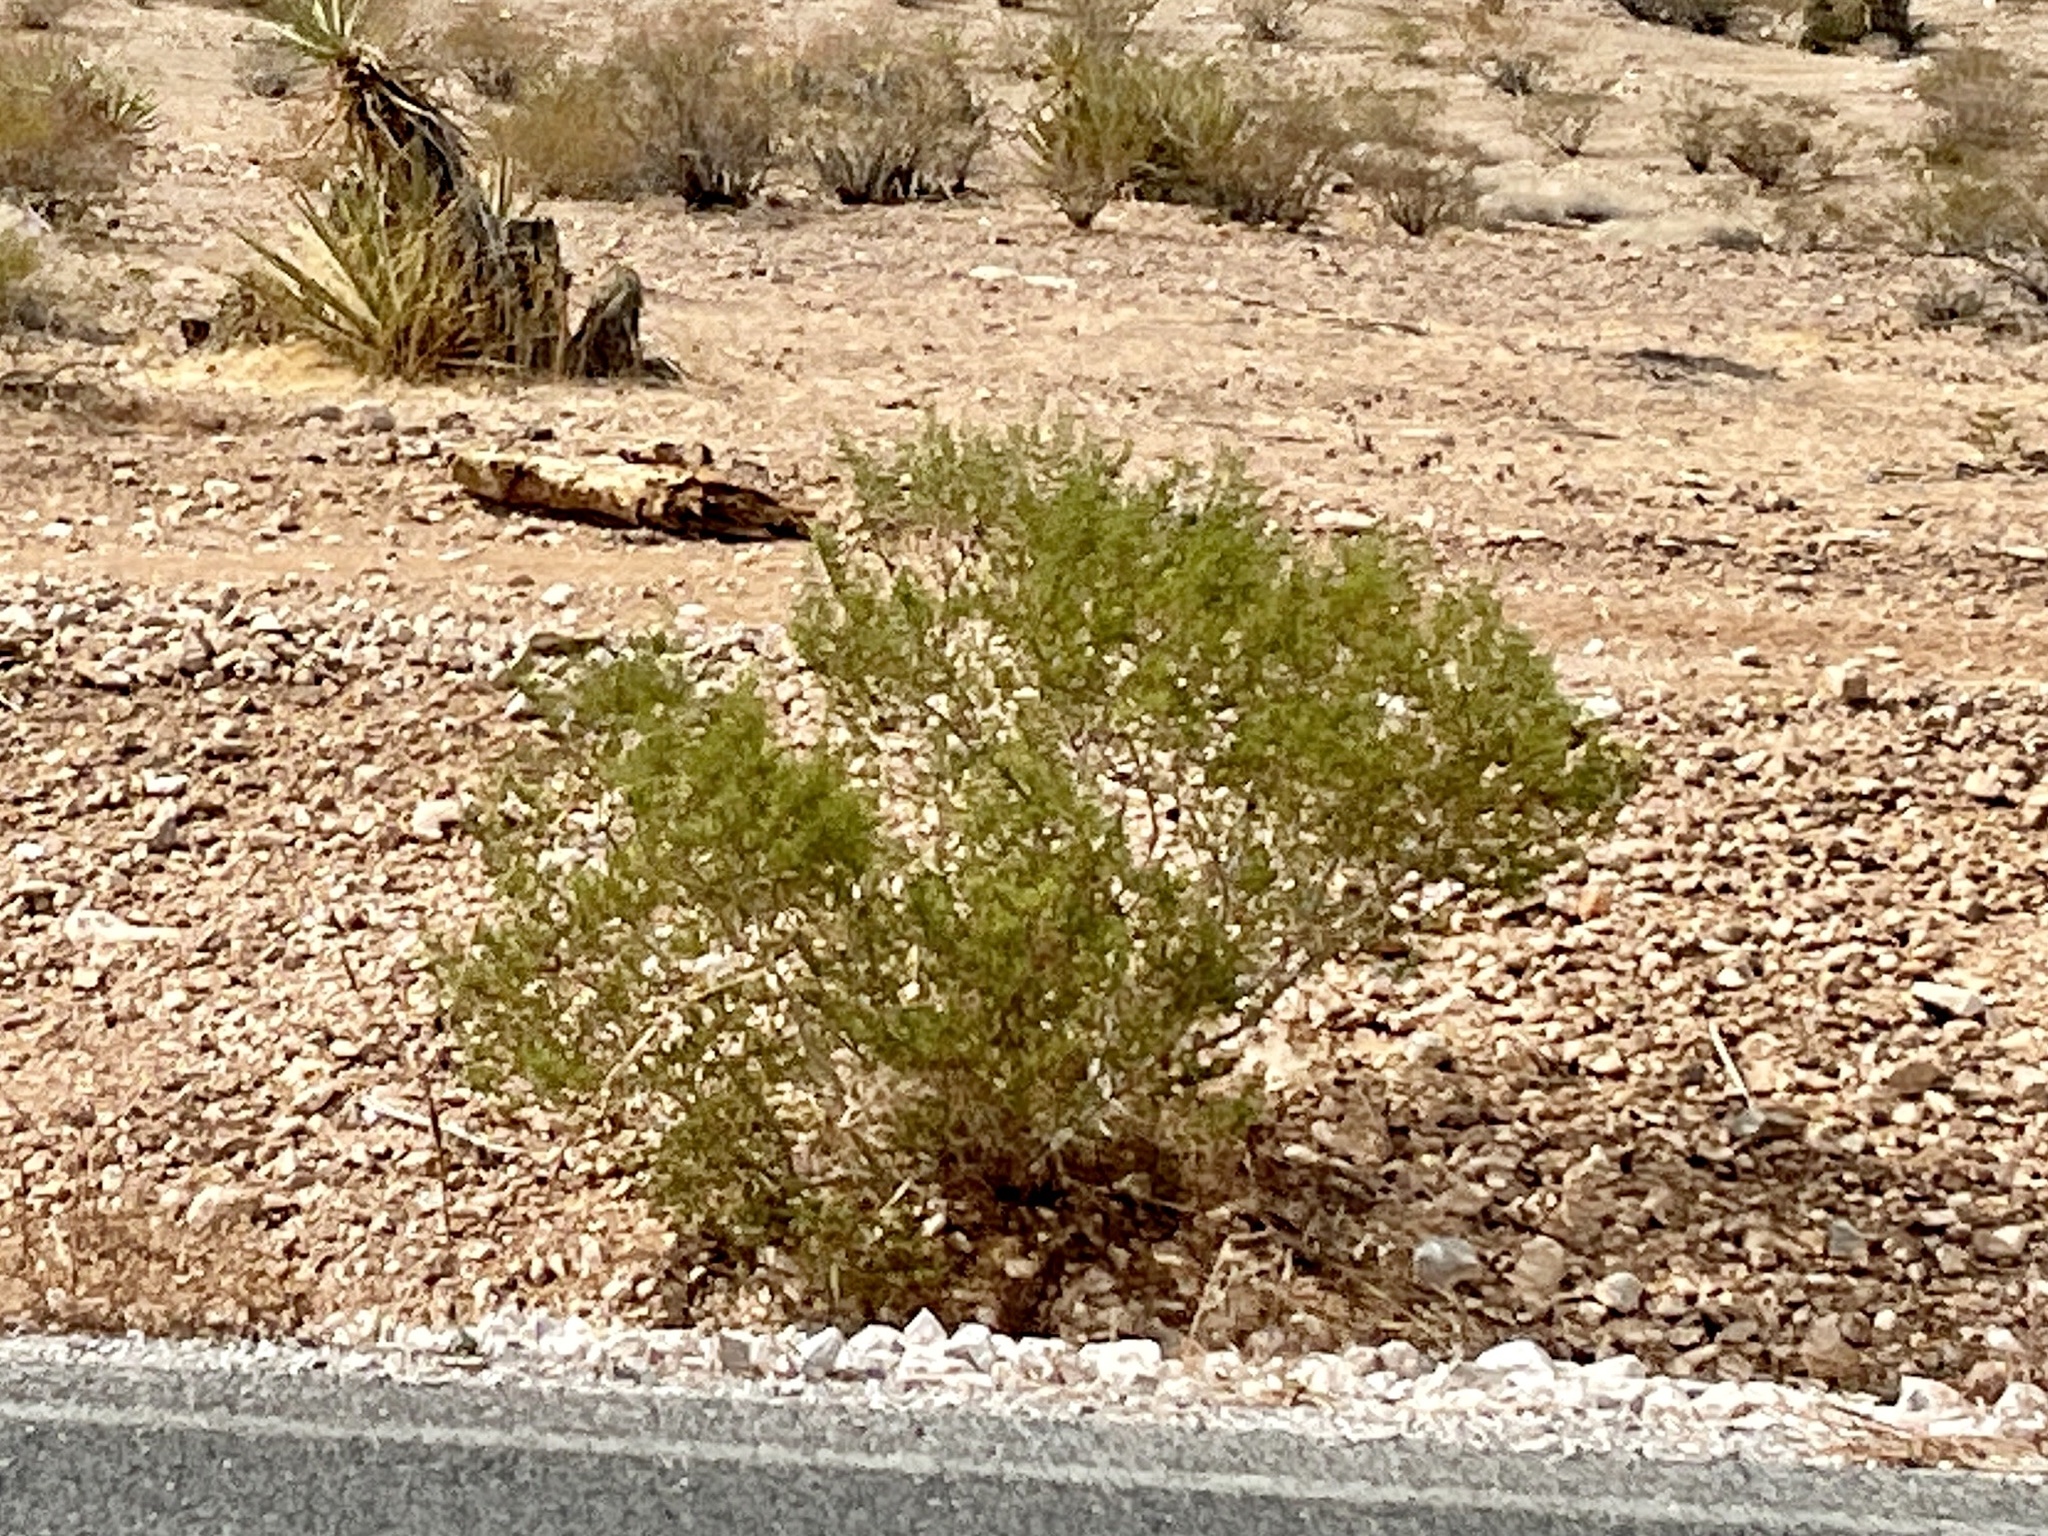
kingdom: Plantae
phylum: Tracheophyta
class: Magnoliopsida
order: Zygophyllales
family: Zygophyllaceae
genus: Larrea
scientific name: Larrea tridentata
